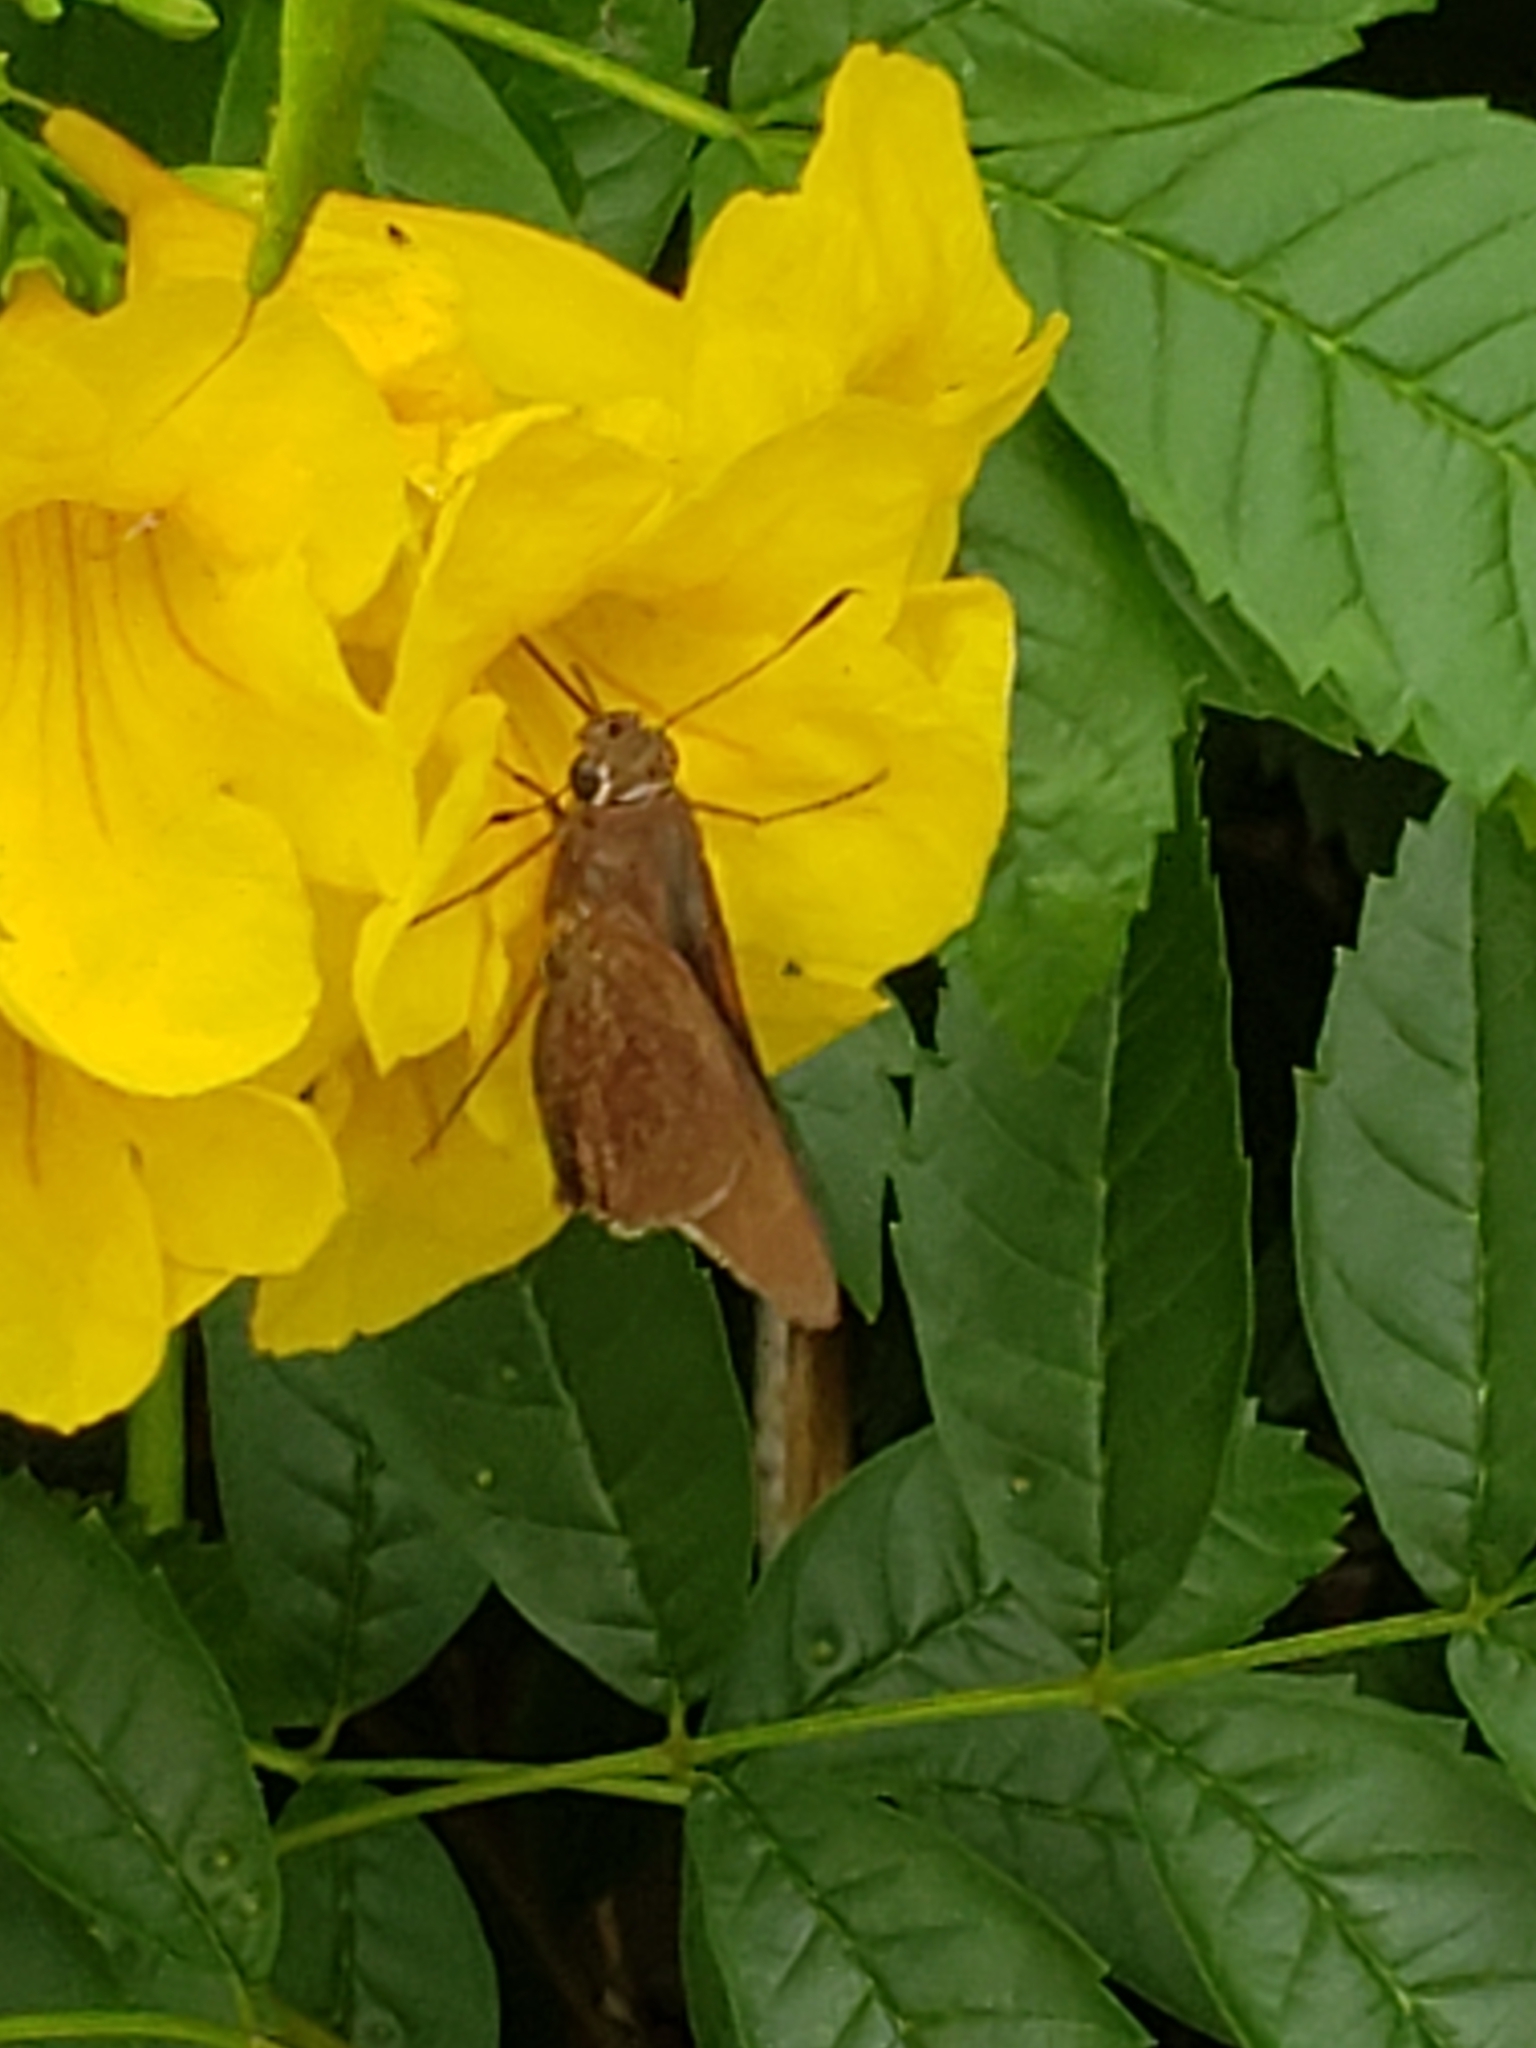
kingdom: Animalia
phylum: Arthropoda
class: Insecta
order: Lepidoptera
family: Hesperiidae
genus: Asbolis
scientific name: Asbolis capucinus
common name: Monk skipper
